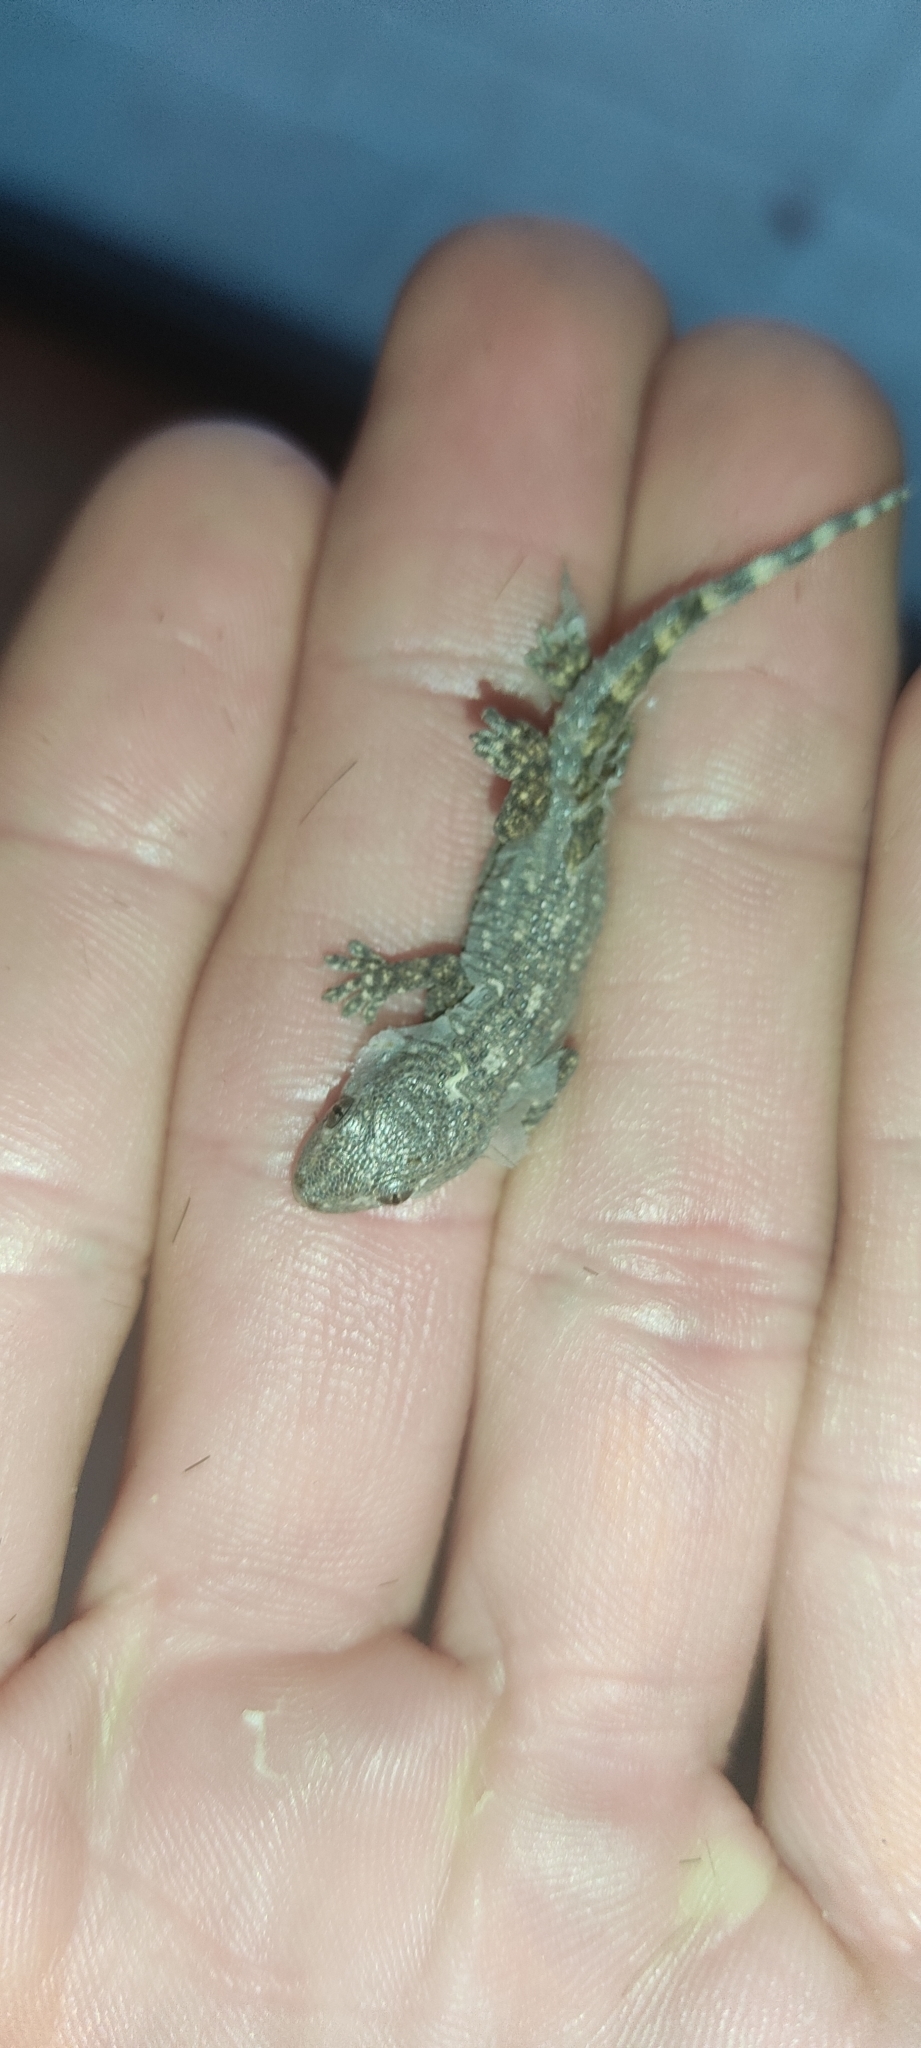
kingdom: Animalia
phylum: Chordata
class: Squamata
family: Phyllodactylidae
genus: Tarentola
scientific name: Tarentola mauritanica
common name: Moorish gecko
